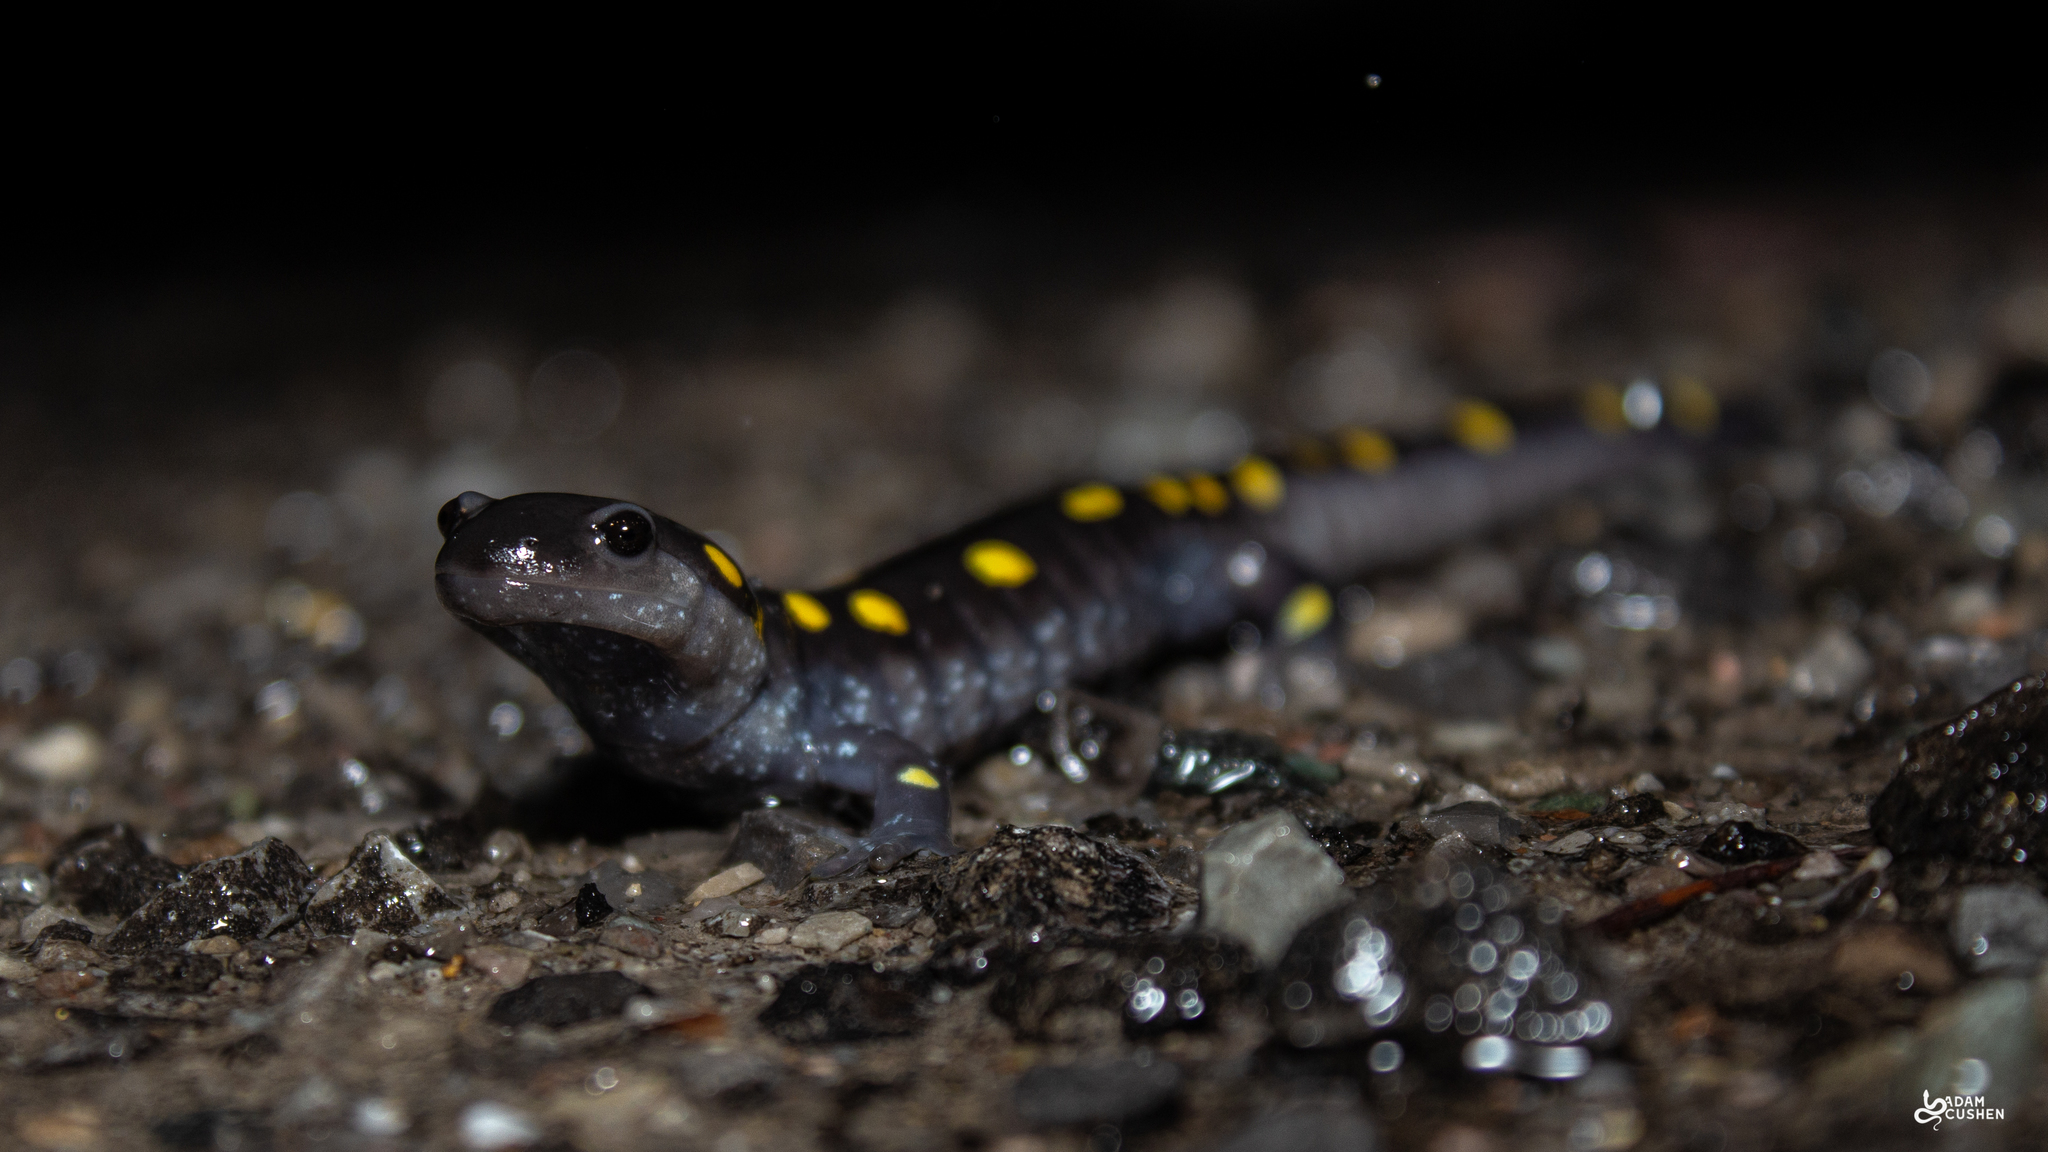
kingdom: Animalia
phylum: Chordata
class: Amphibia
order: Caudata
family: Ambystomatidae
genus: Ambystoma
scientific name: Ambystoma maculatum
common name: Spotted salamander
